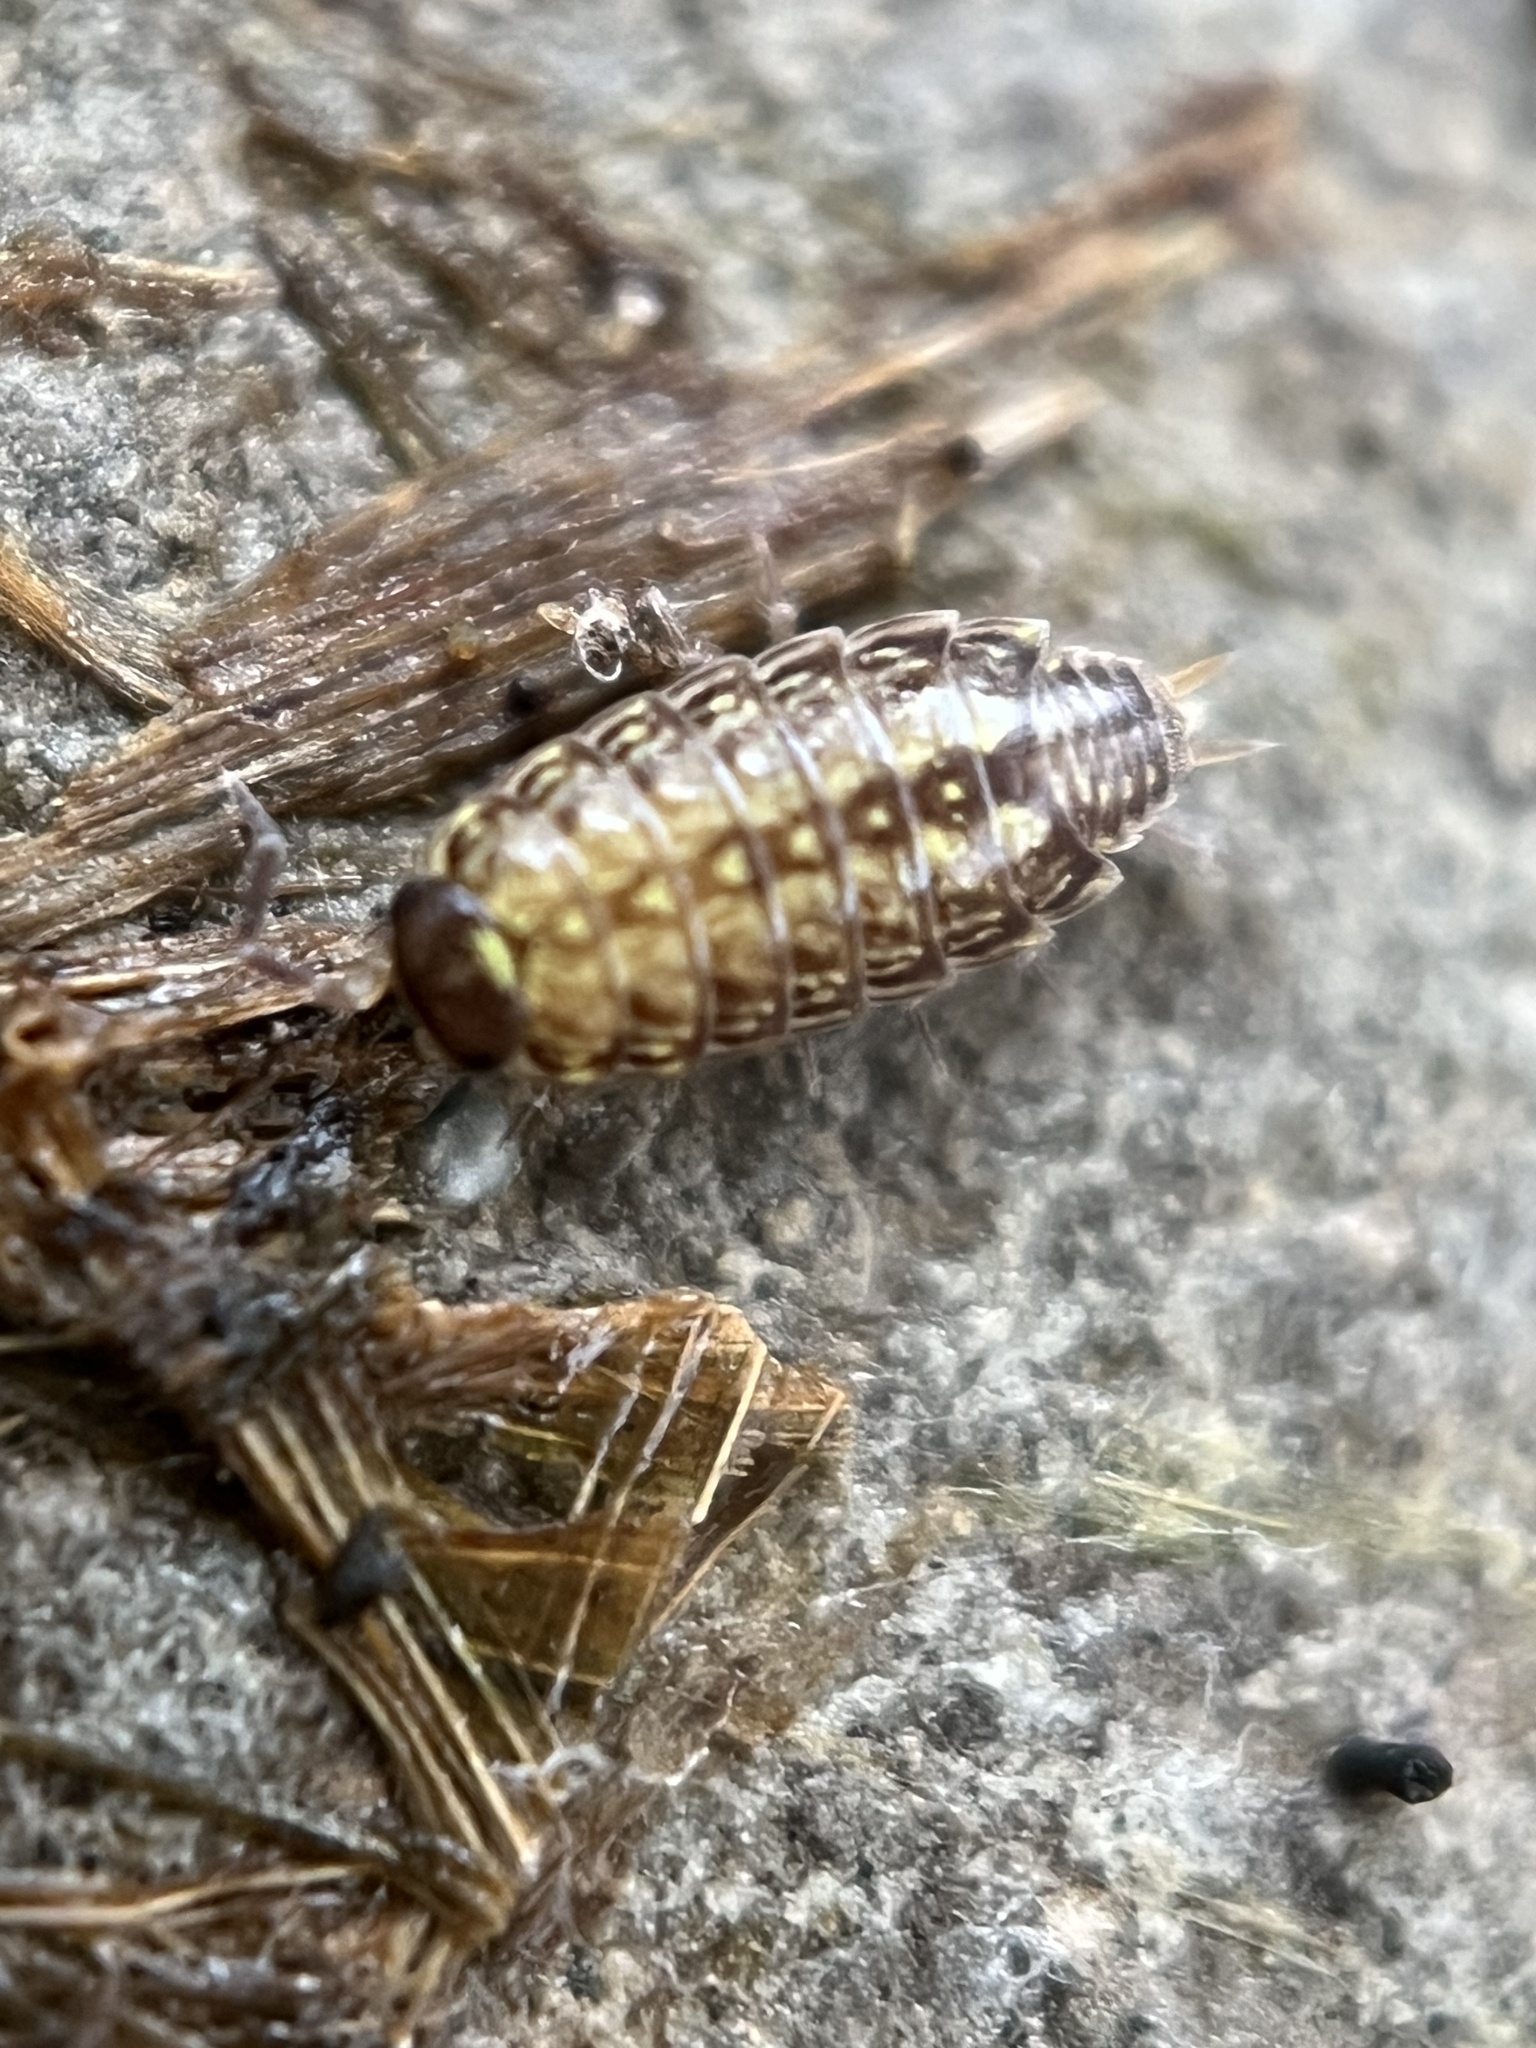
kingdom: Animalia
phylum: Arthropoda
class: Malacostraca
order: Isopoda
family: Philosciidae
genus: Philoscia
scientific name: Philoscia muscorum
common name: Common striped woodlouse
